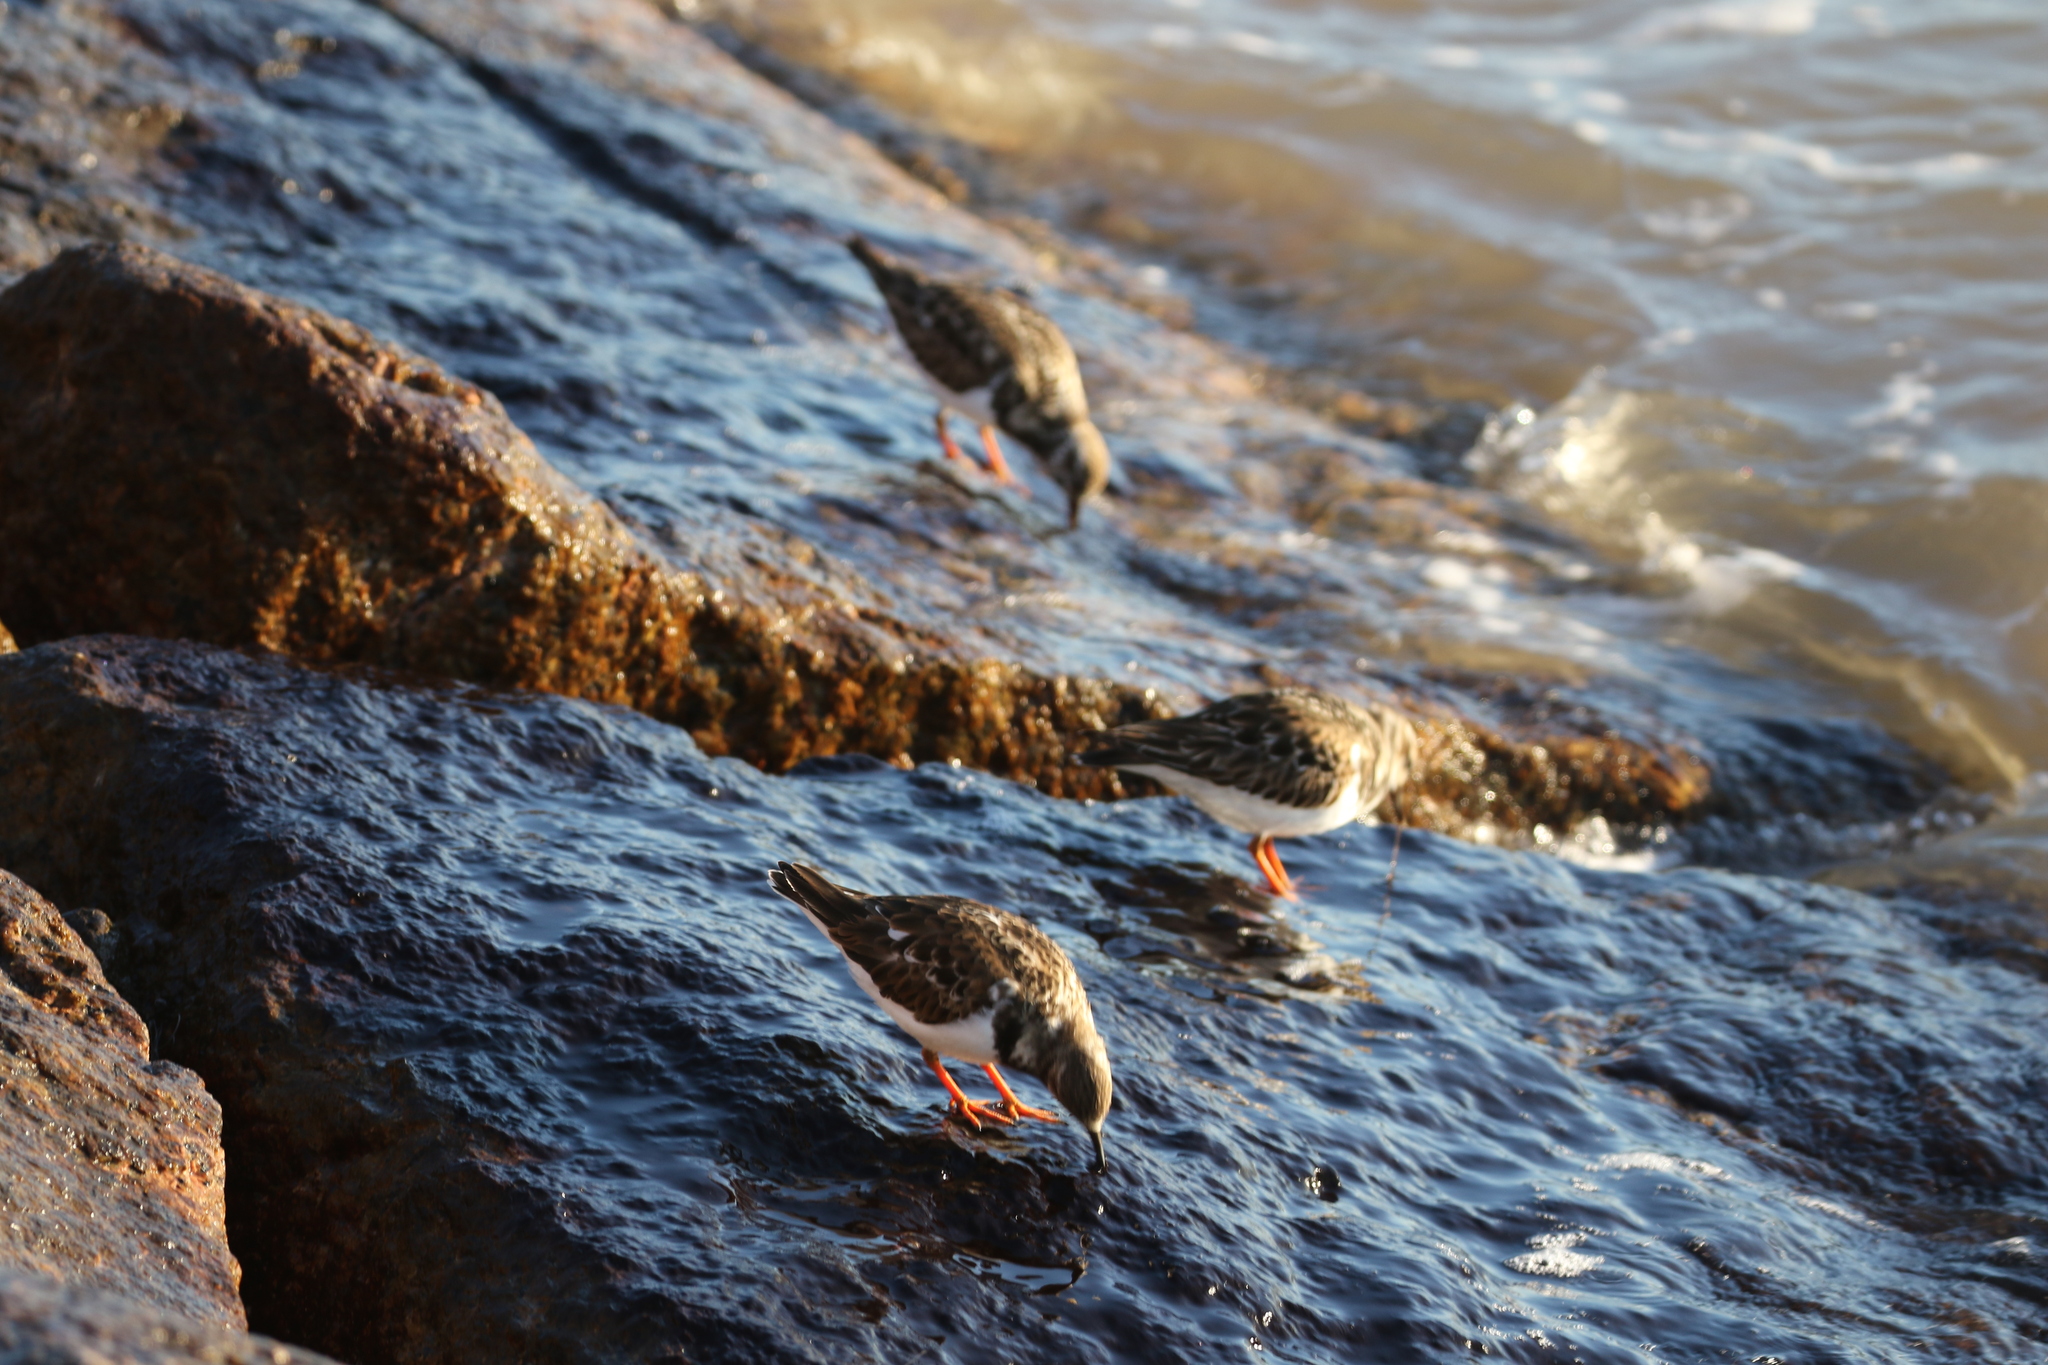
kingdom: Animalia
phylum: Chordata
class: Aves
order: Charadriiformes
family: Scolopacidae
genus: Arenaria
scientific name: Arenaria interpres
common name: Ruddy turnstone
